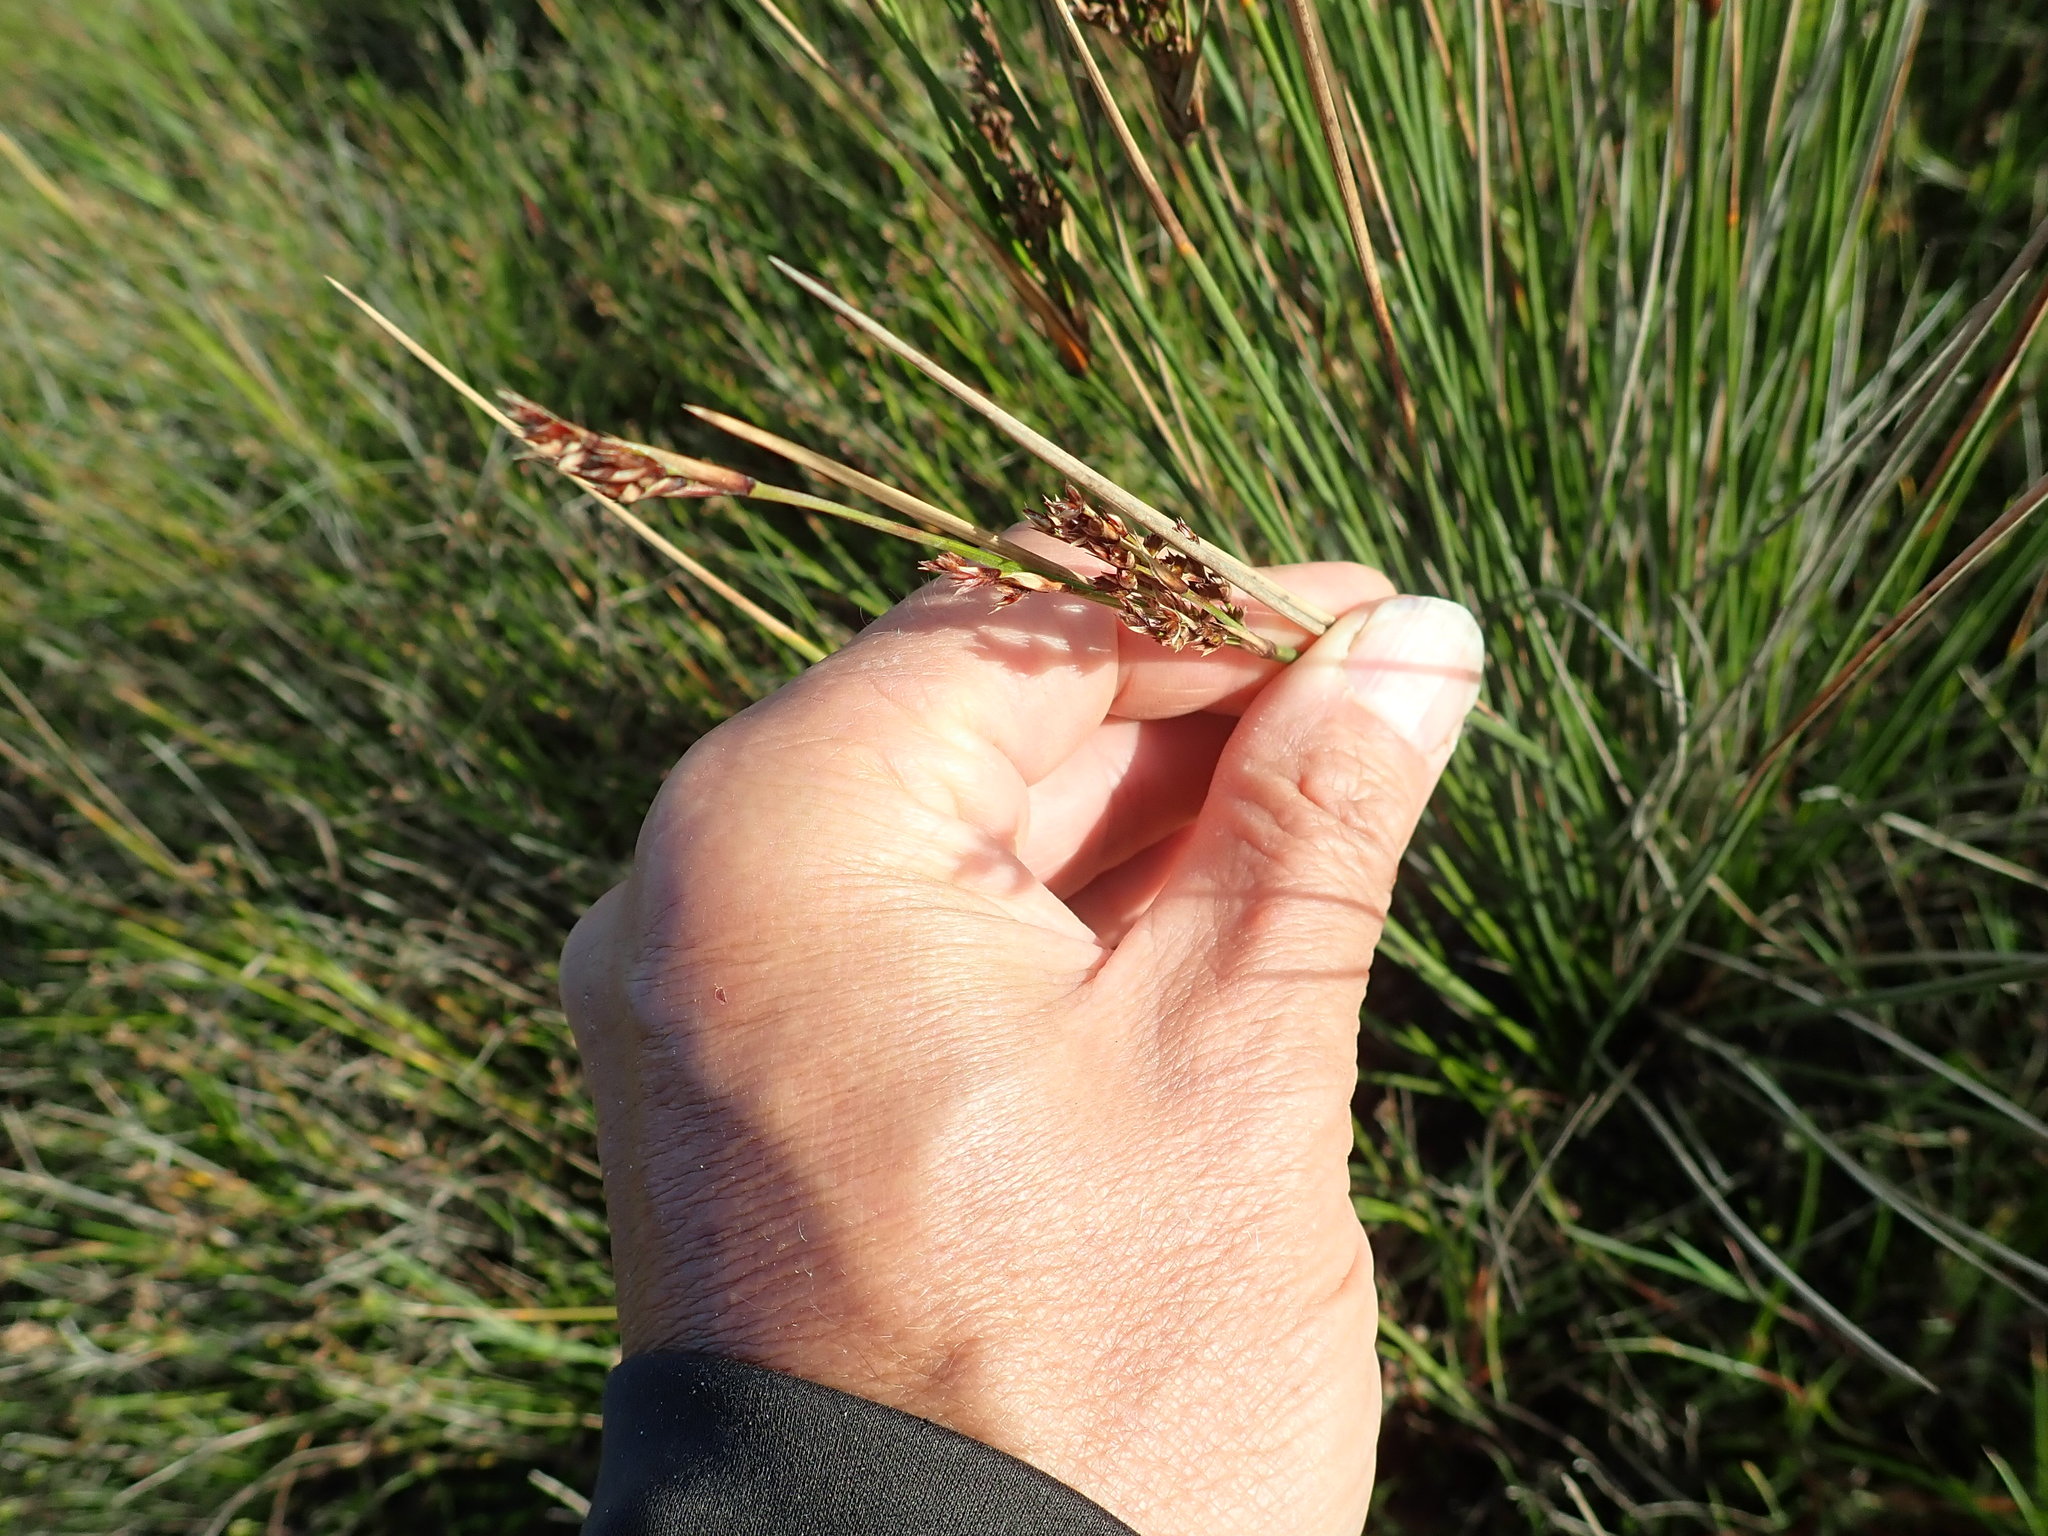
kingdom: Plantae
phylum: Tracheophyta
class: Liliopsida
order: Poales
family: Juncaceae
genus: Juncus
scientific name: Juncus kraussii
